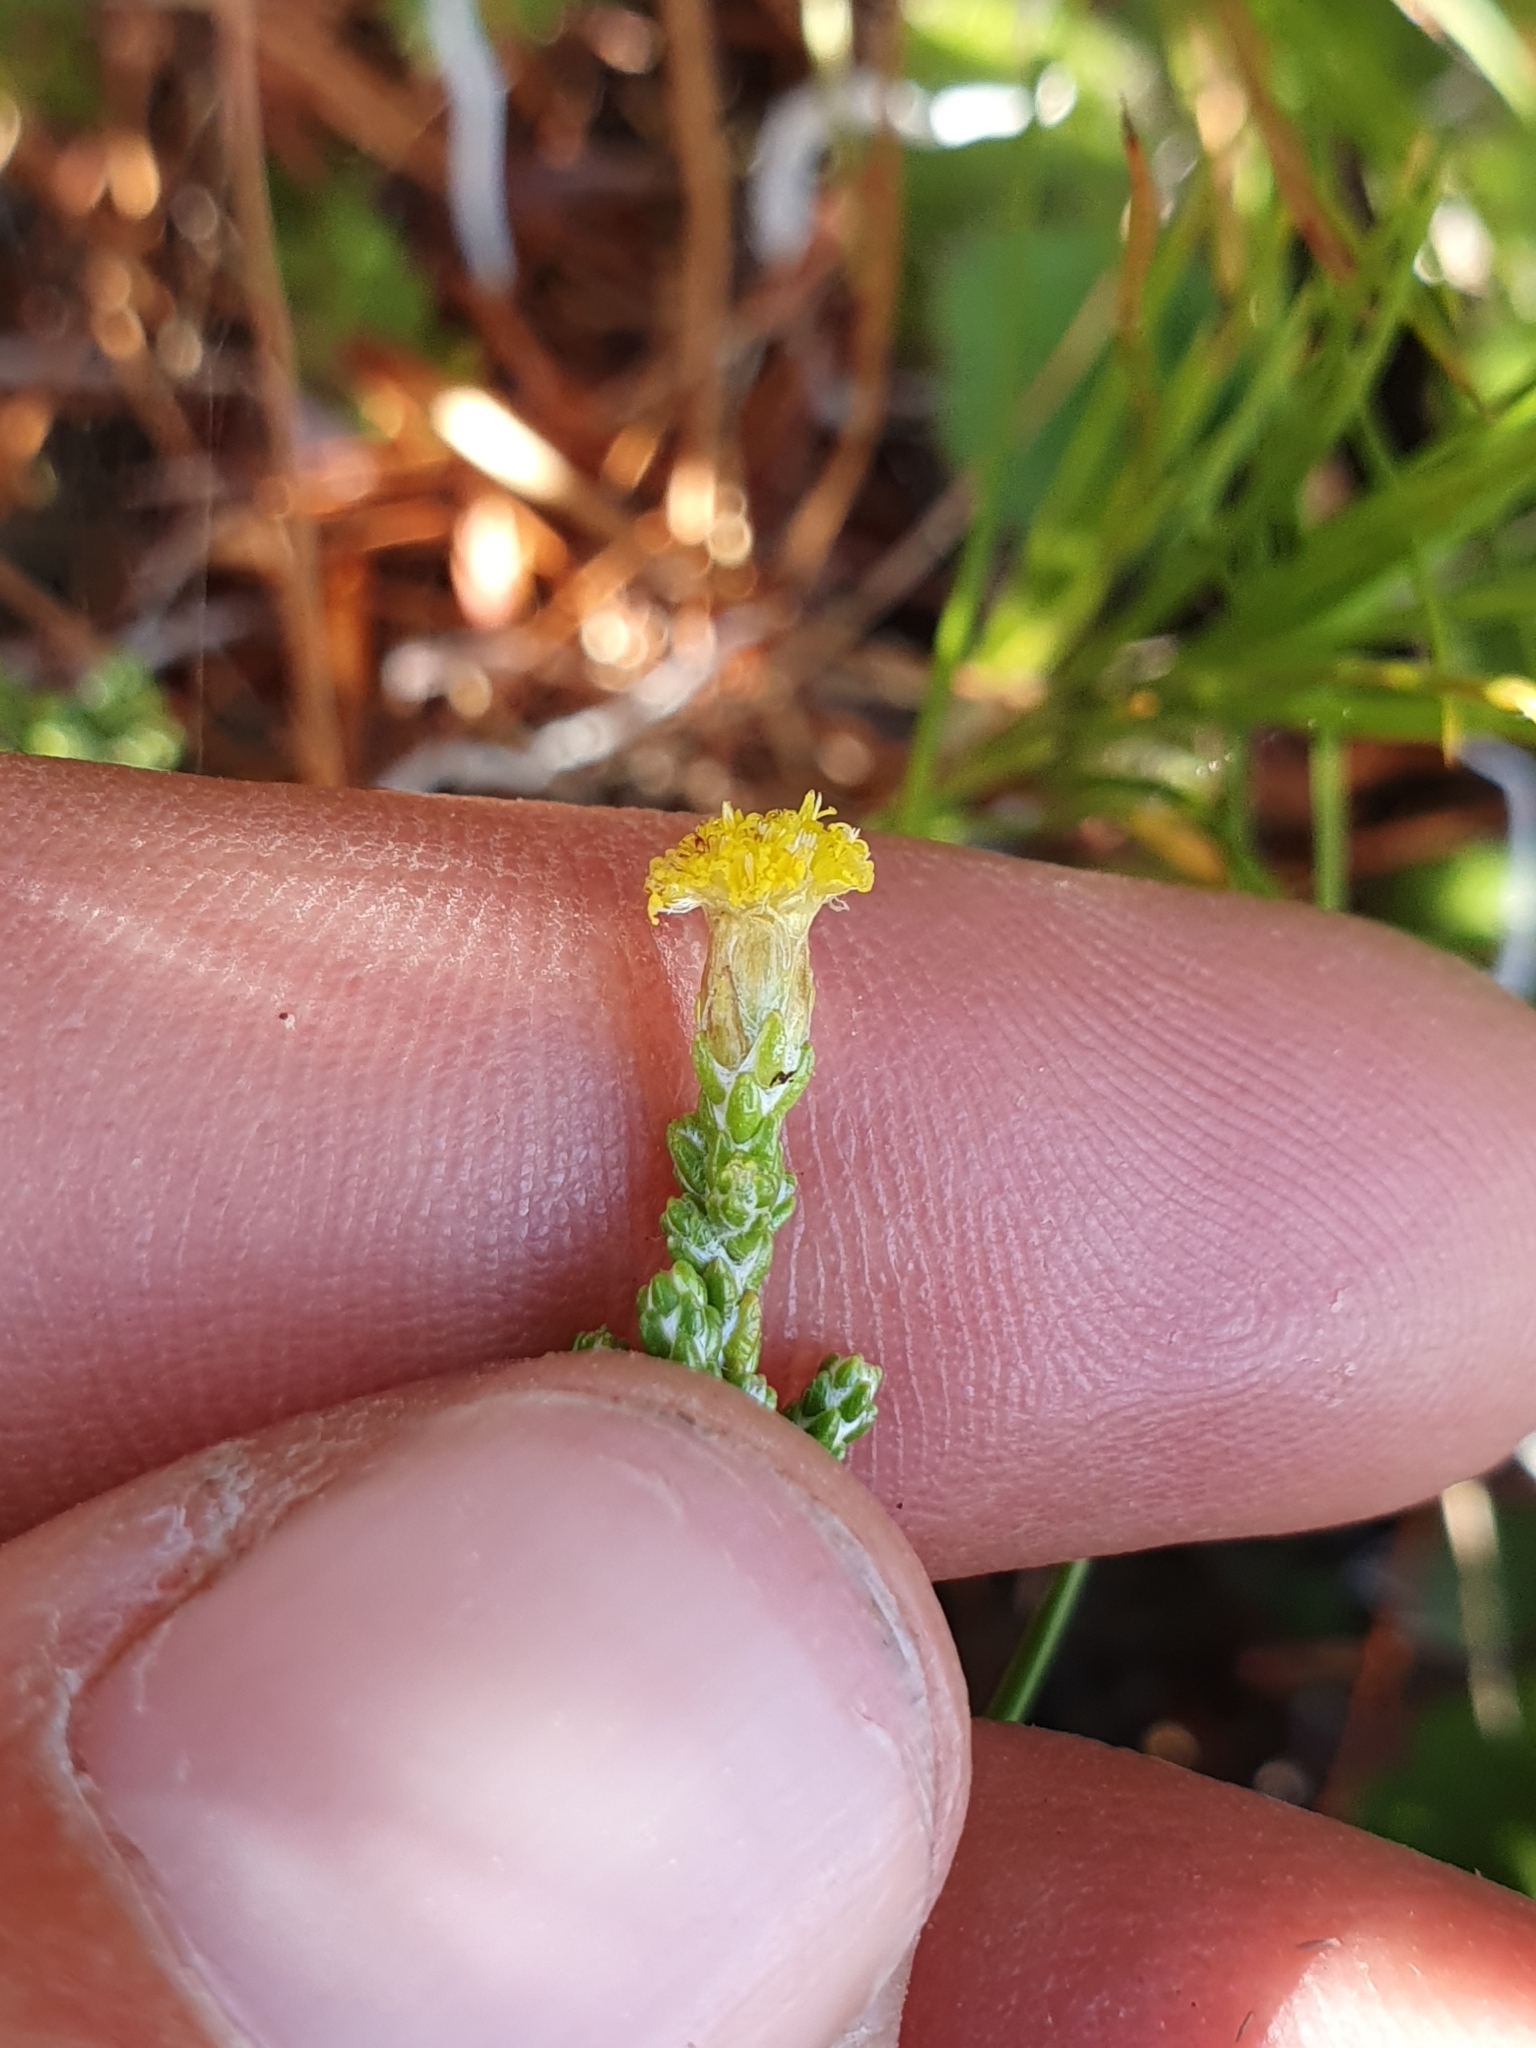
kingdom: Plantae
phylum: Tracheophyta
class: Magnoliopsida
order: Asterales
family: Asteraceae
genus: Ozothamnus
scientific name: Ozothamnus parvifolius
